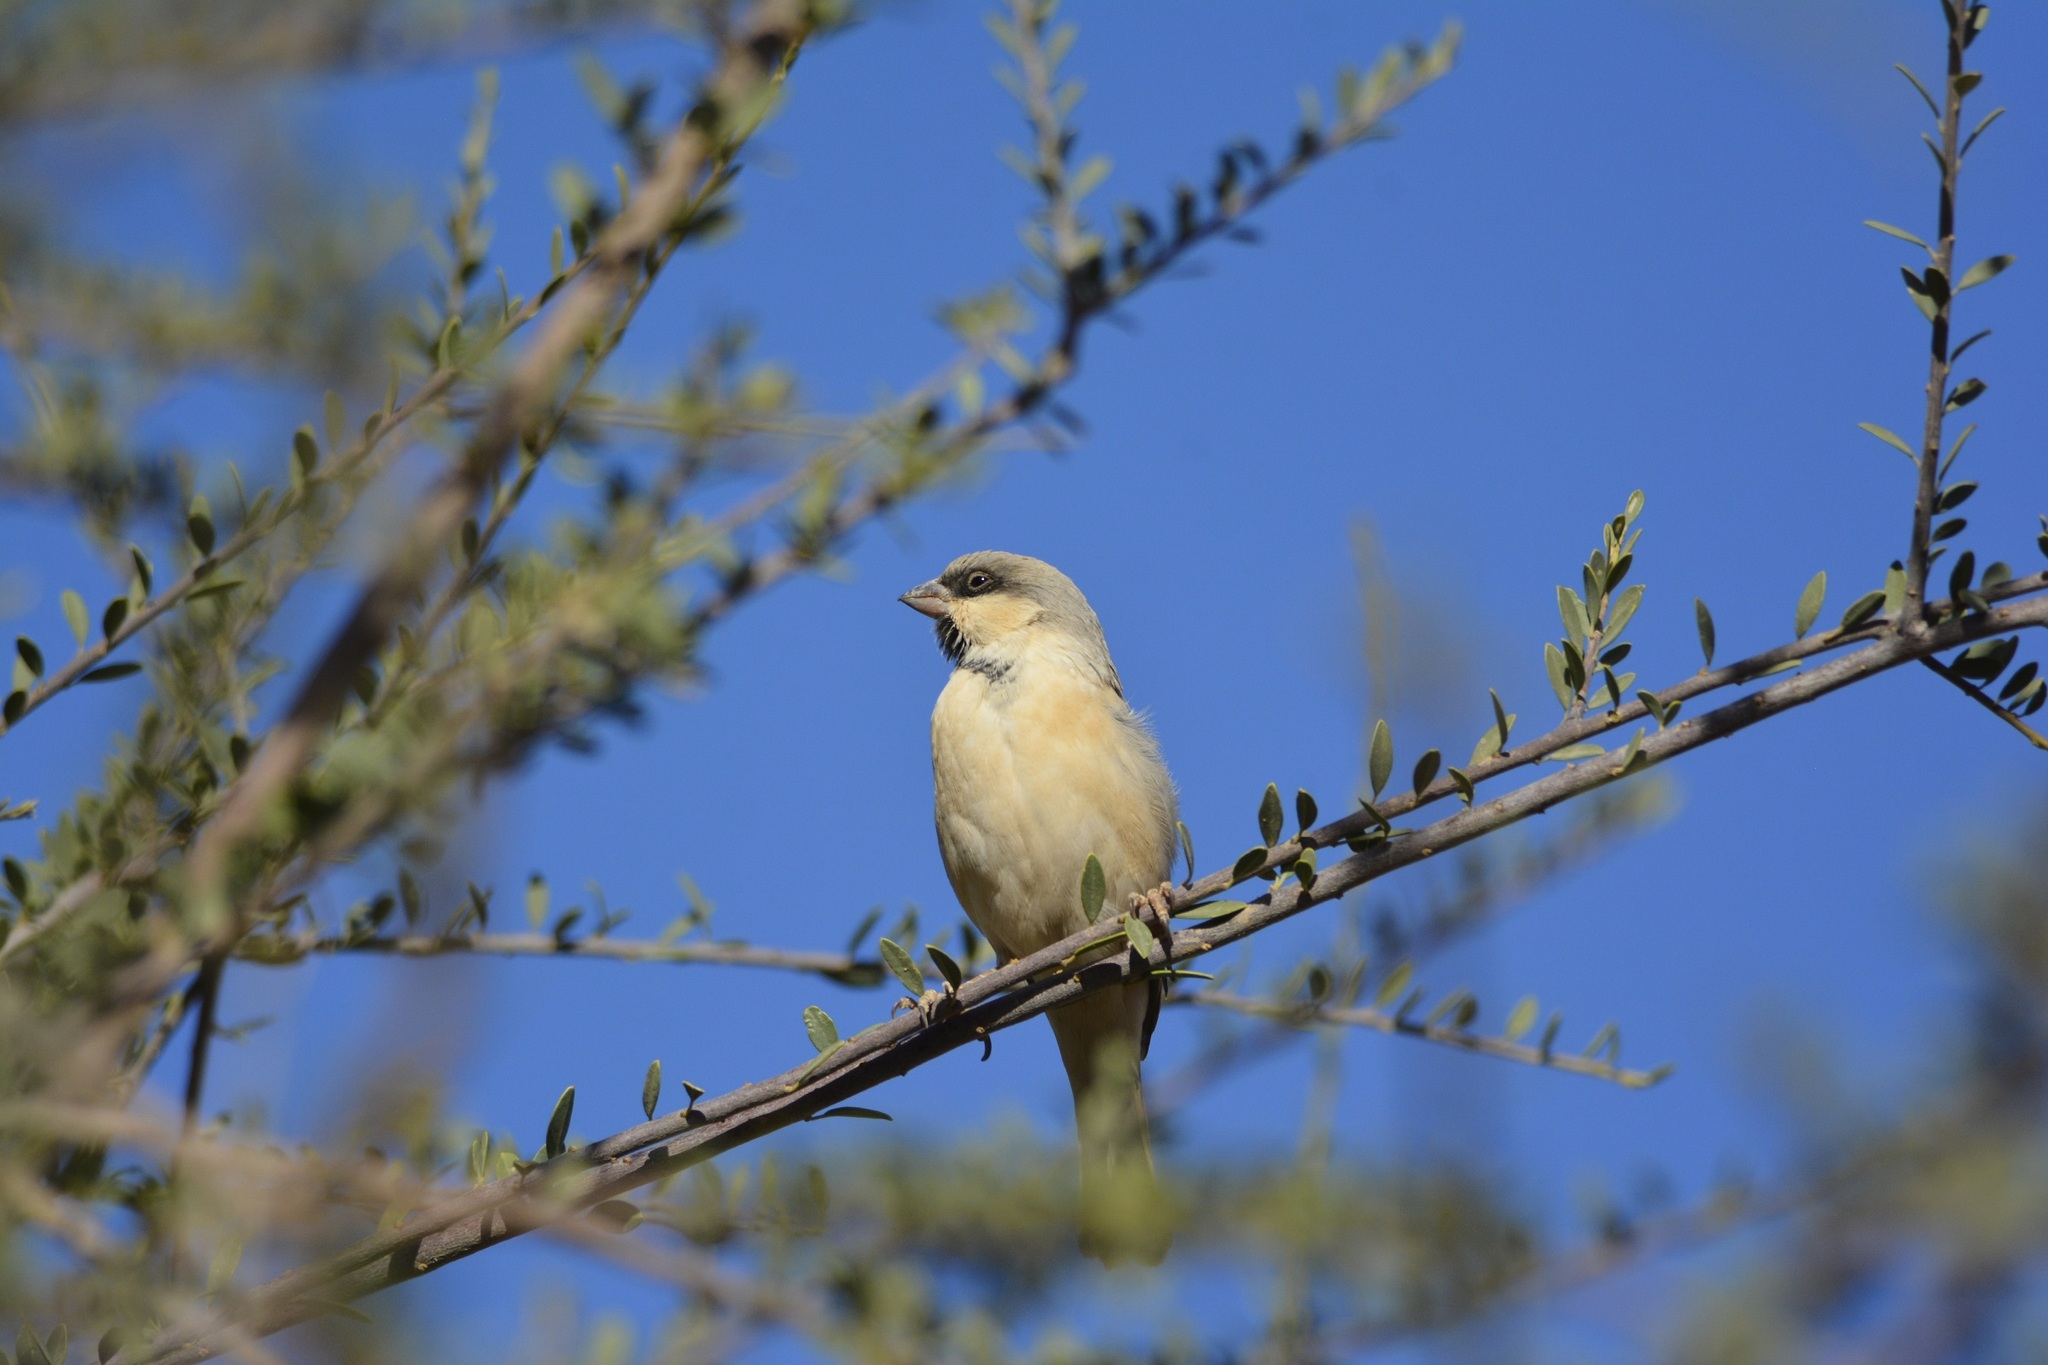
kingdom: Animalia
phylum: Chordata
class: Aves
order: Passeriformes
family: Passeridae
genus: Passer
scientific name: Passer simplex
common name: Desert sparrow
